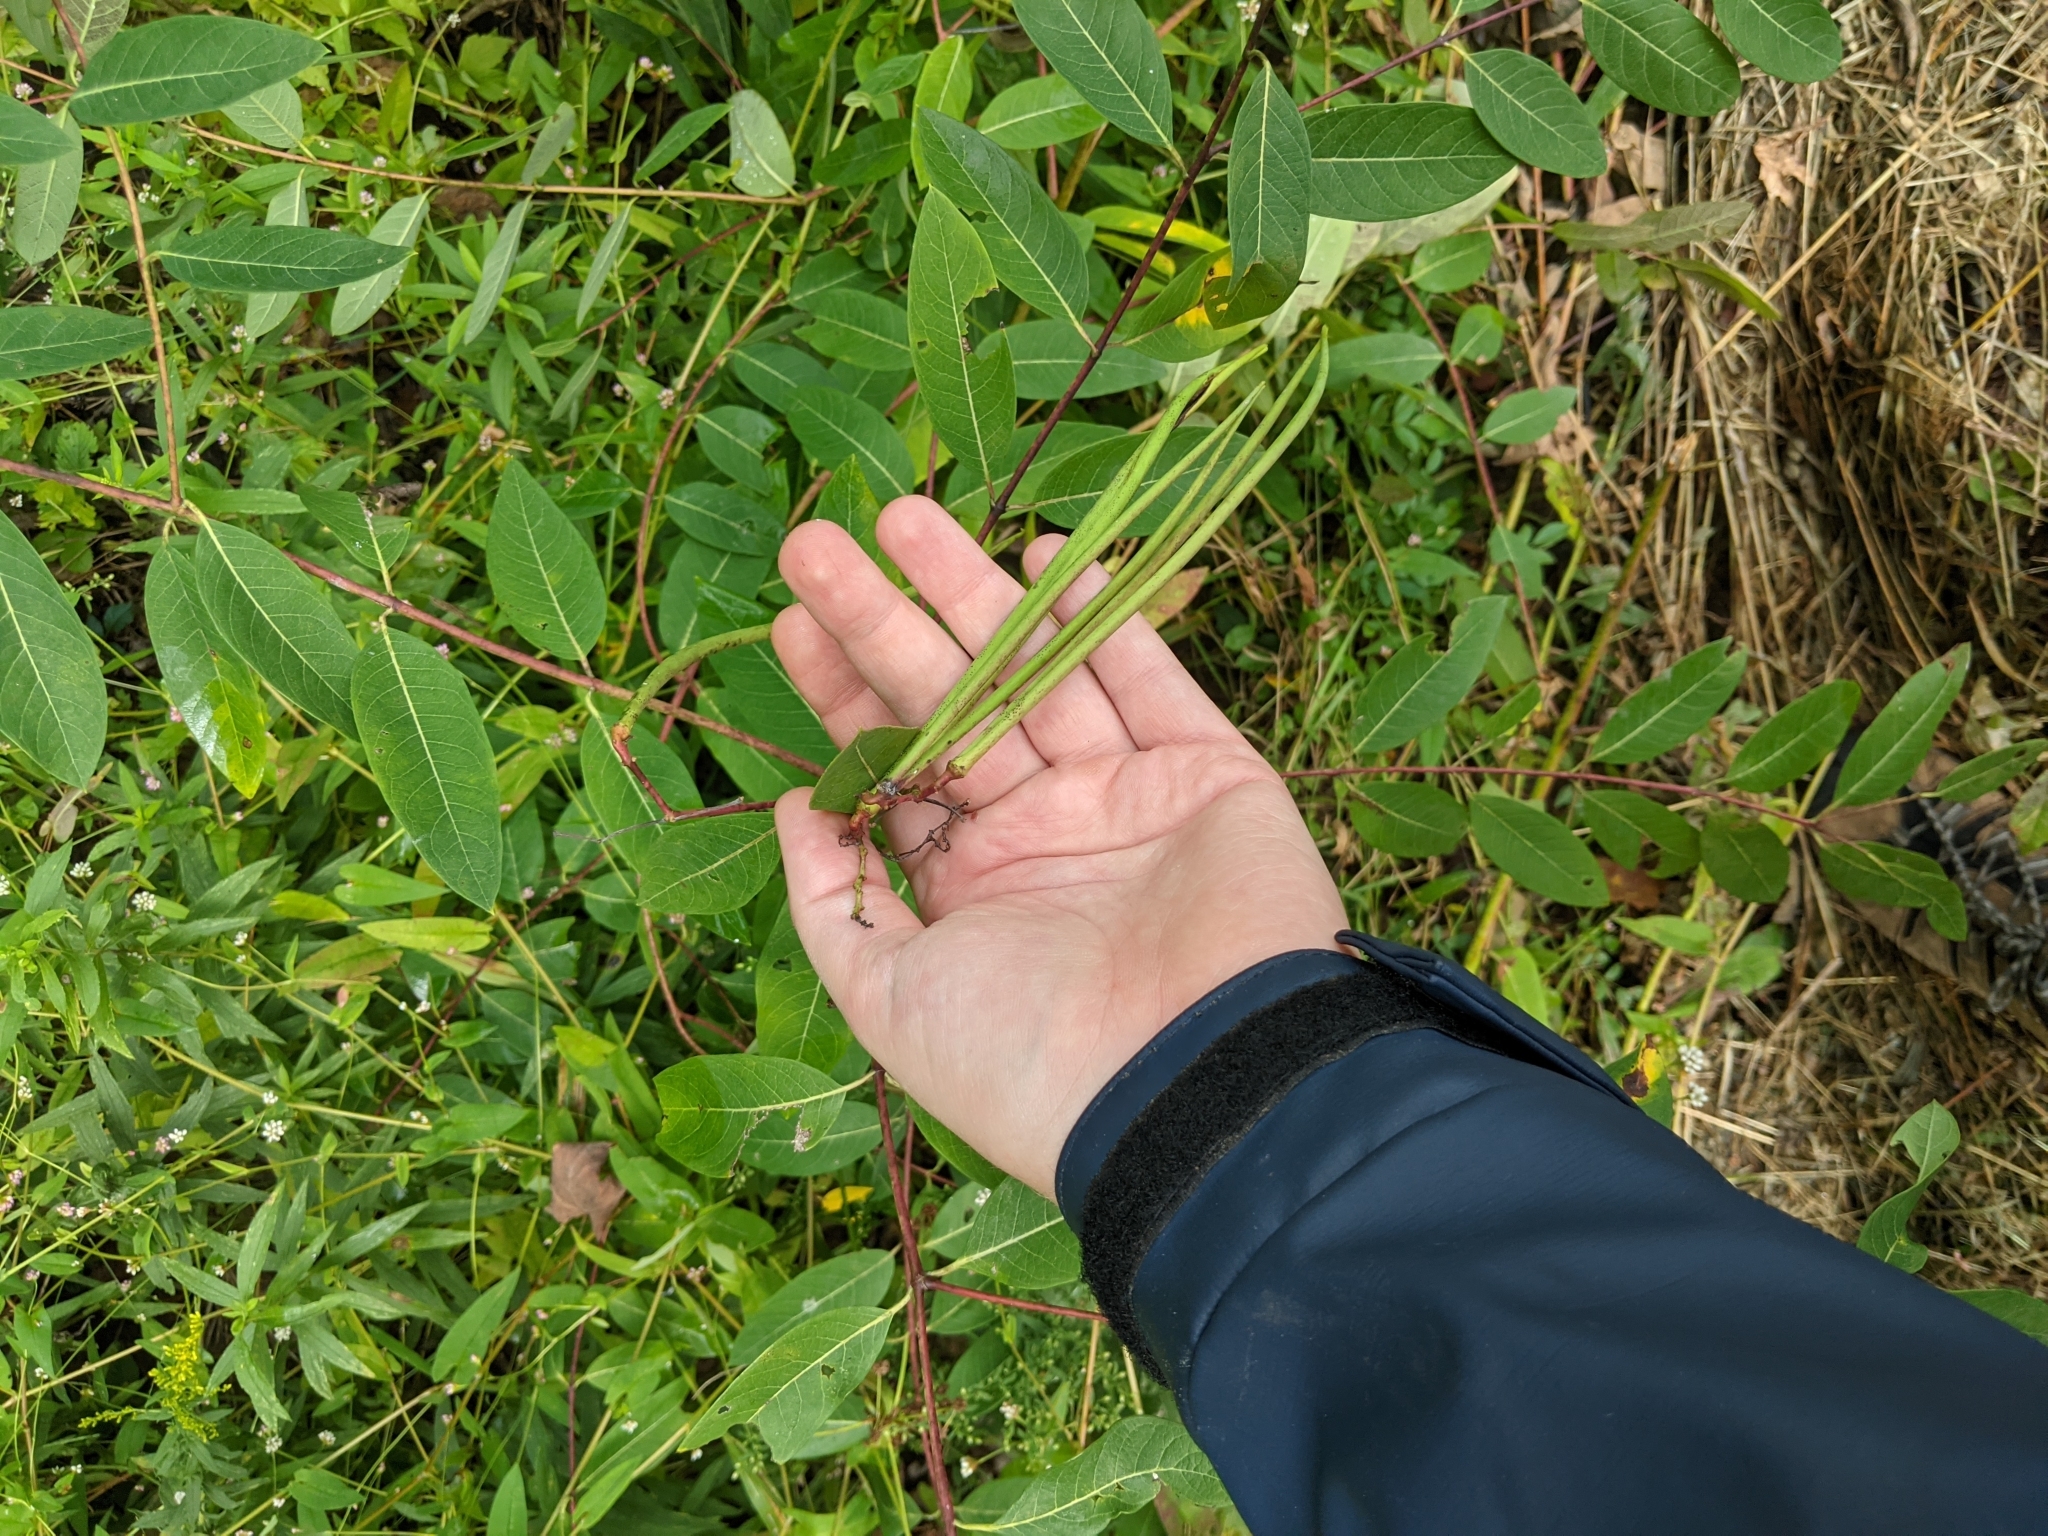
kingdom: Plantae
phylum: Tracheophyta
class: Magnoliopsida
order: Gentianales
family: Apocynaceae
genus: Apocynum
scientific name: Apocynum cannabinum
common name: Hemp dogbane
